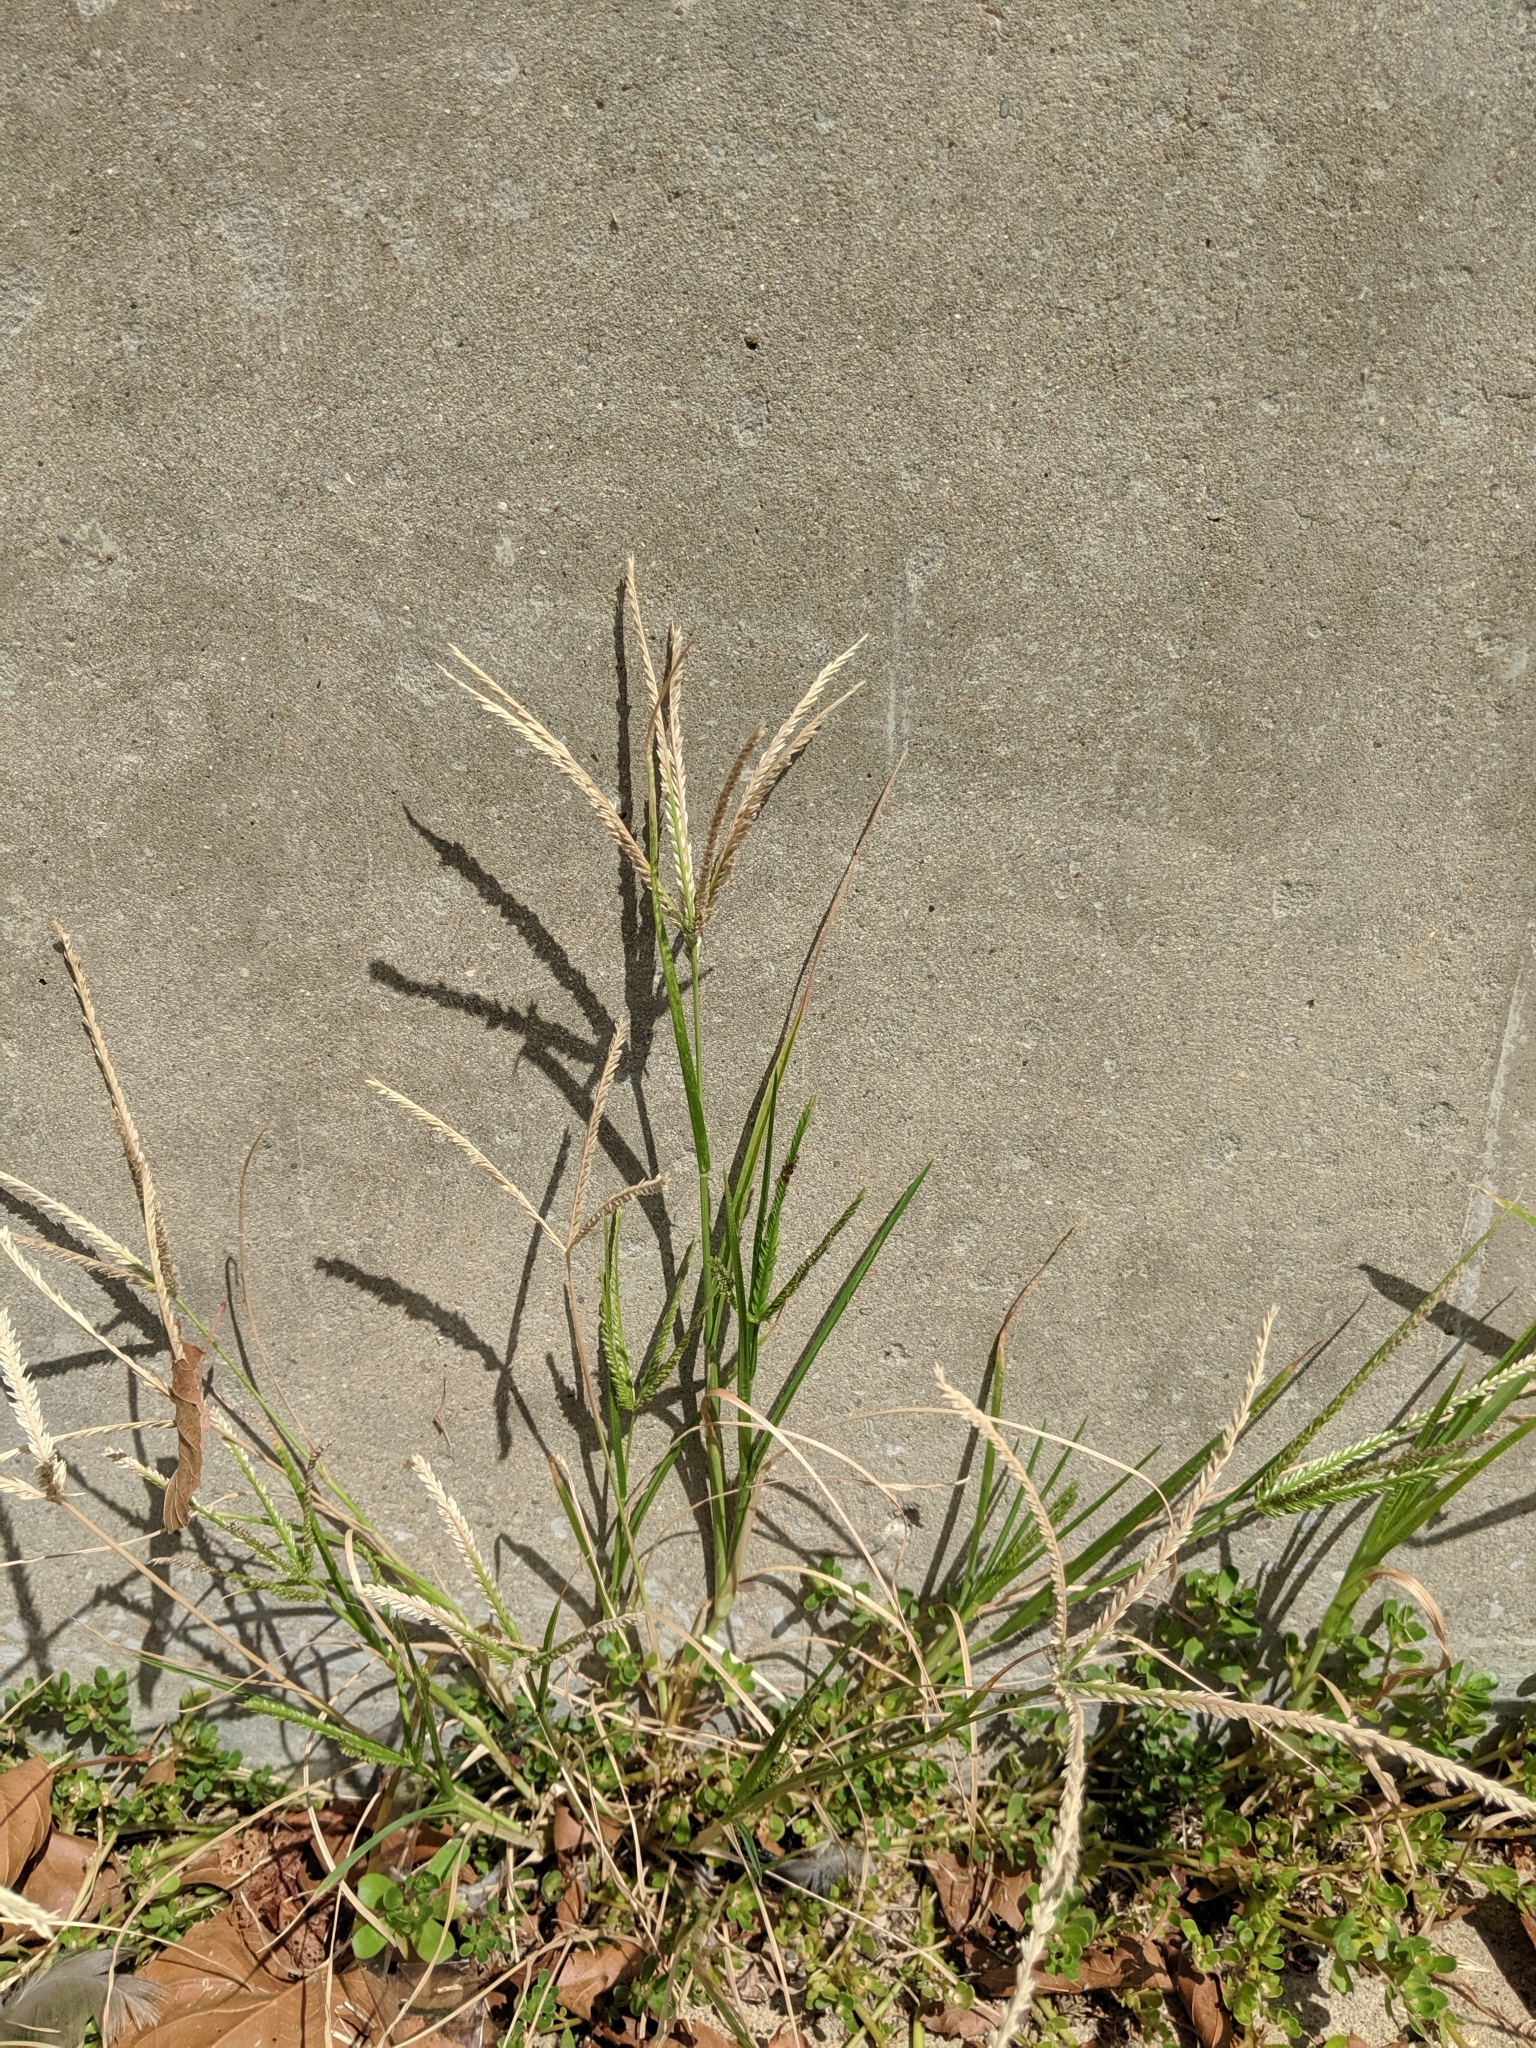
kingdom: Plantae
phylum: Tracheophyta
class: Liliopsida
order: Poales
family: Poaceae
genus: Eleusine
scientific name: Eleusine indica
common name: Yard-grass
